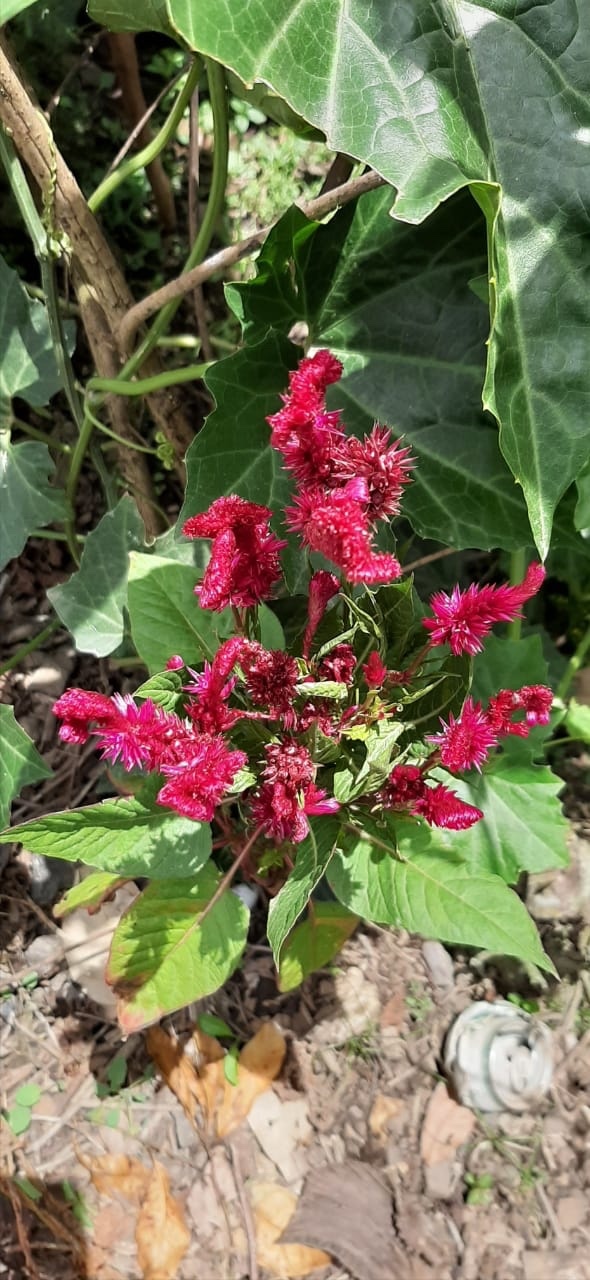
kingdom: Plantae
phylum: Tracheophyta
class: Magnoliopsida
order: Caryophyllales
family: Amaranthaceae
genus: Celosia
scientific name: Celosia argentea
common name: Feather cockscomb
